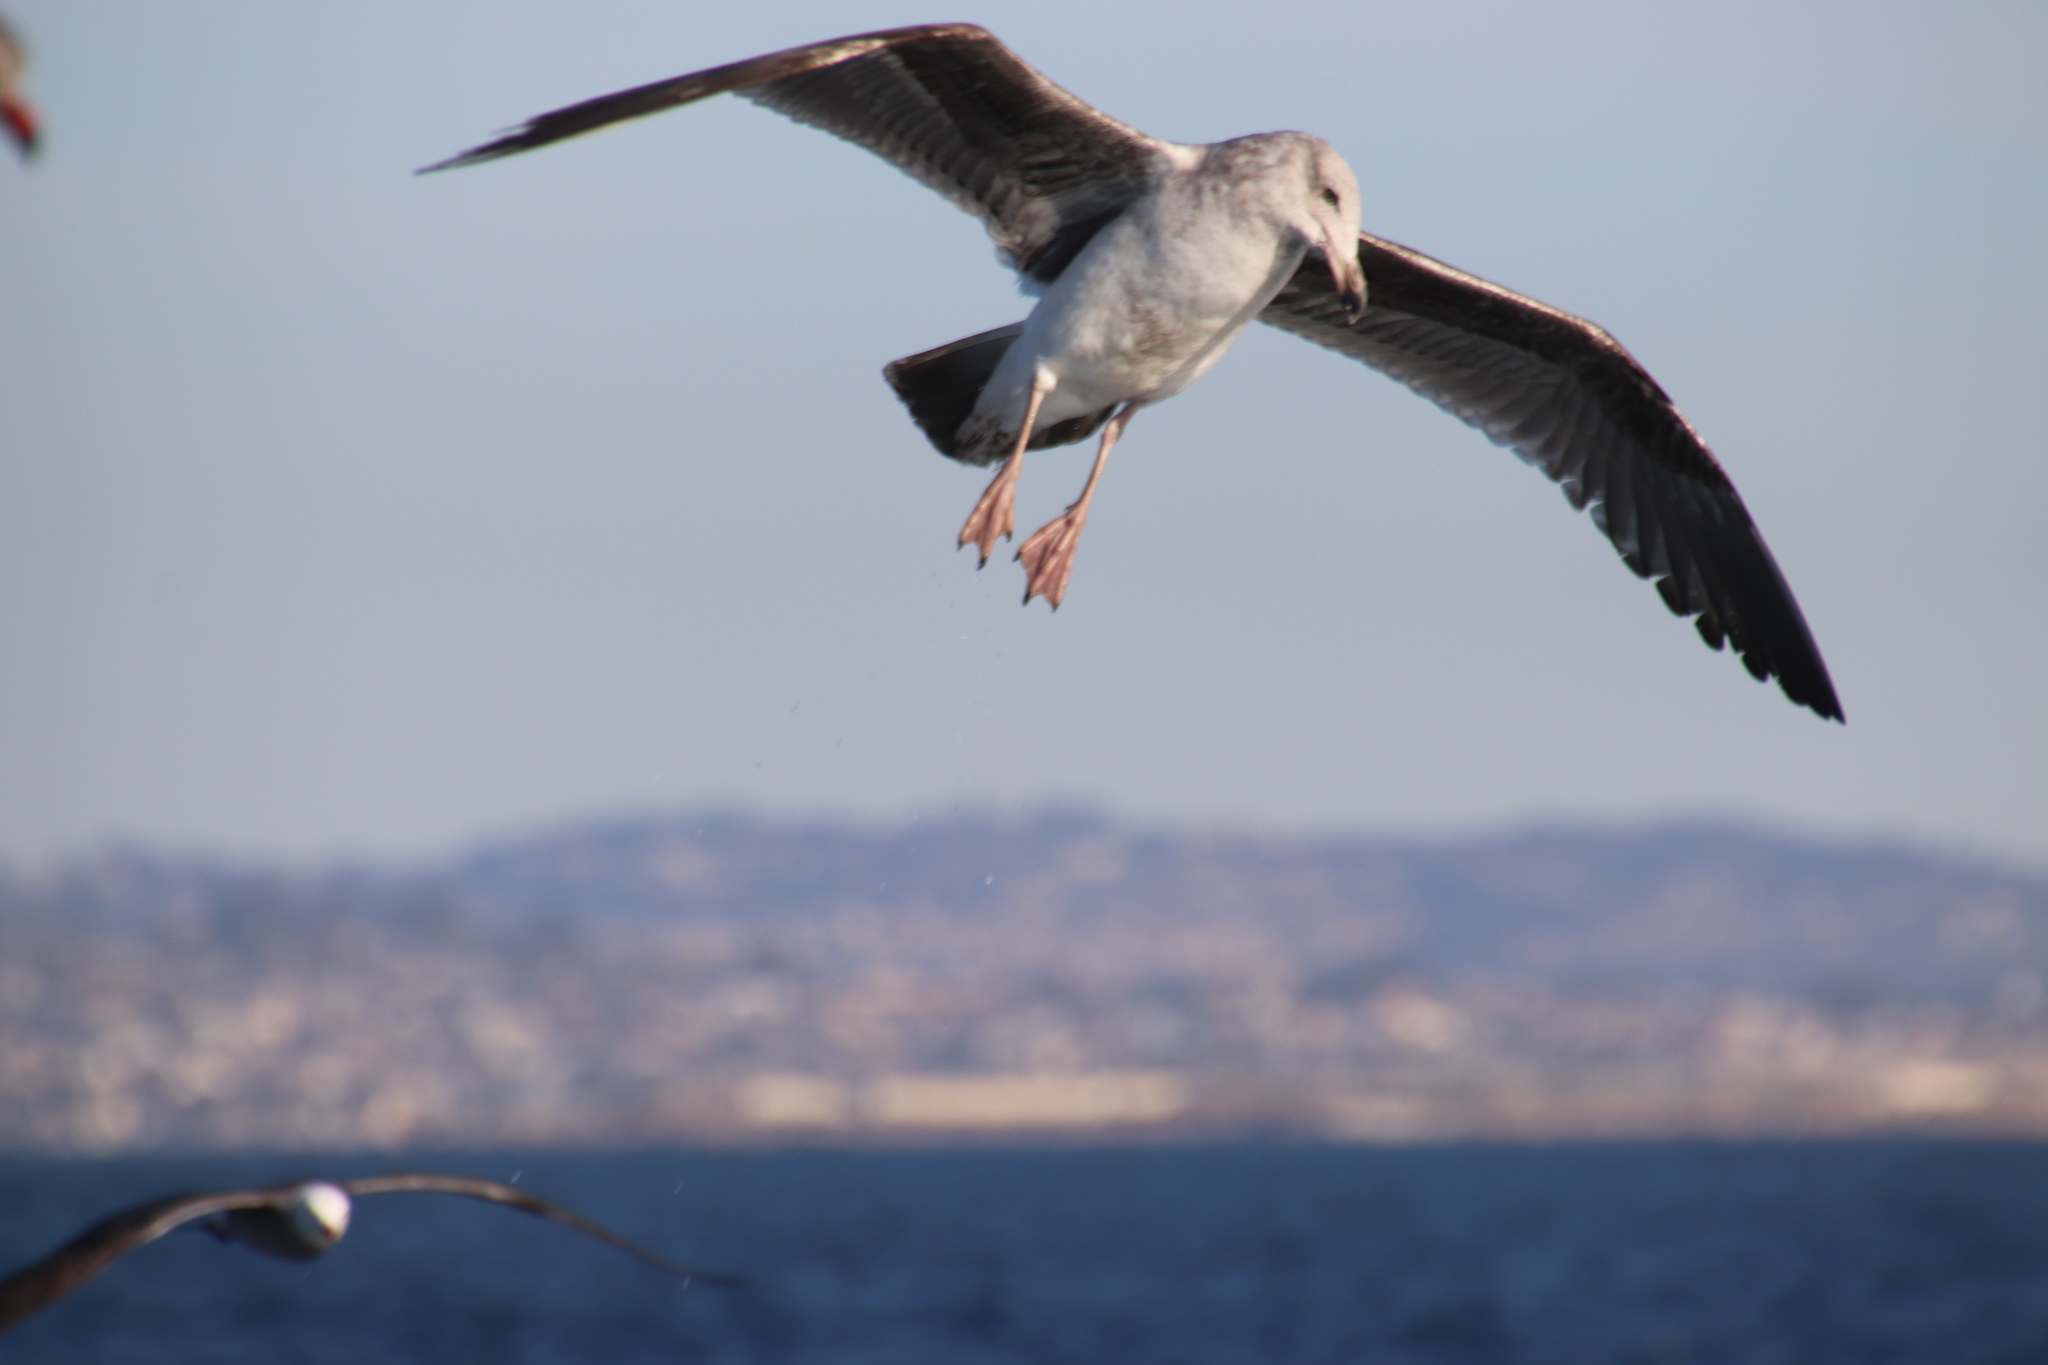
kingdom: Animalia
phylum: Chordata
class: Aves
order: Charadriiformes
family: Laridae
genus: Larus
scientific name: Larus occidentalis
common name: Western gull
